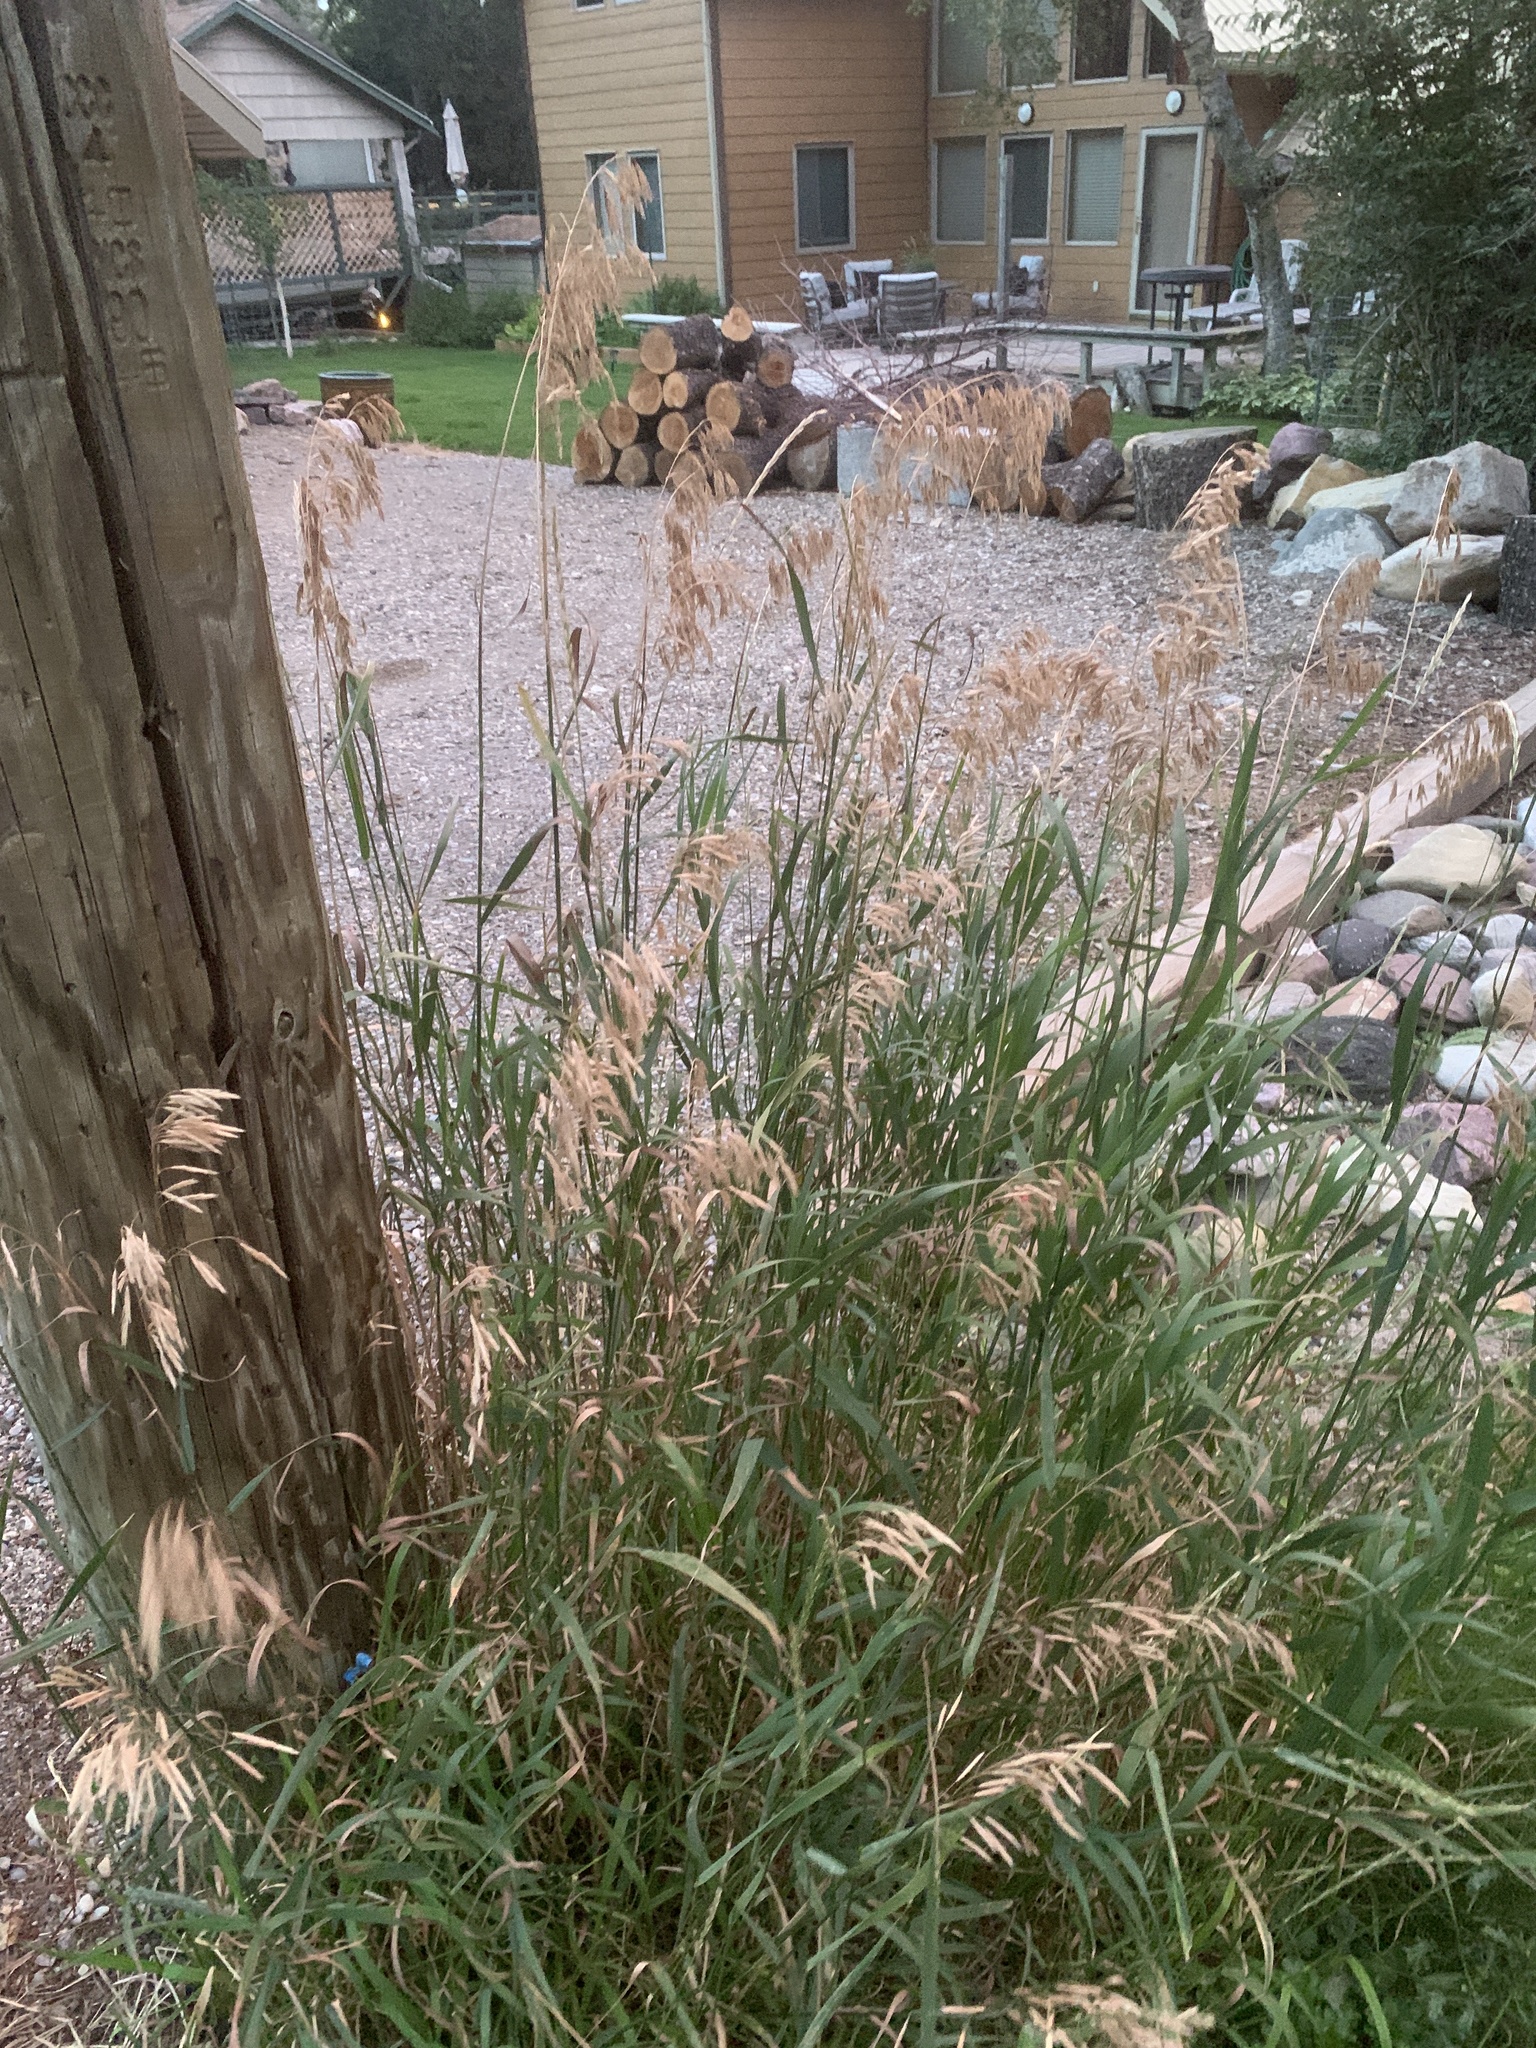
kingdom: Plantae
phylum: Tracheophyta
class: Liliopsida
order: Poales
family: Poaceae
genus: Bromus
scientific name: Bromus inermis
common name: Smooth brome
